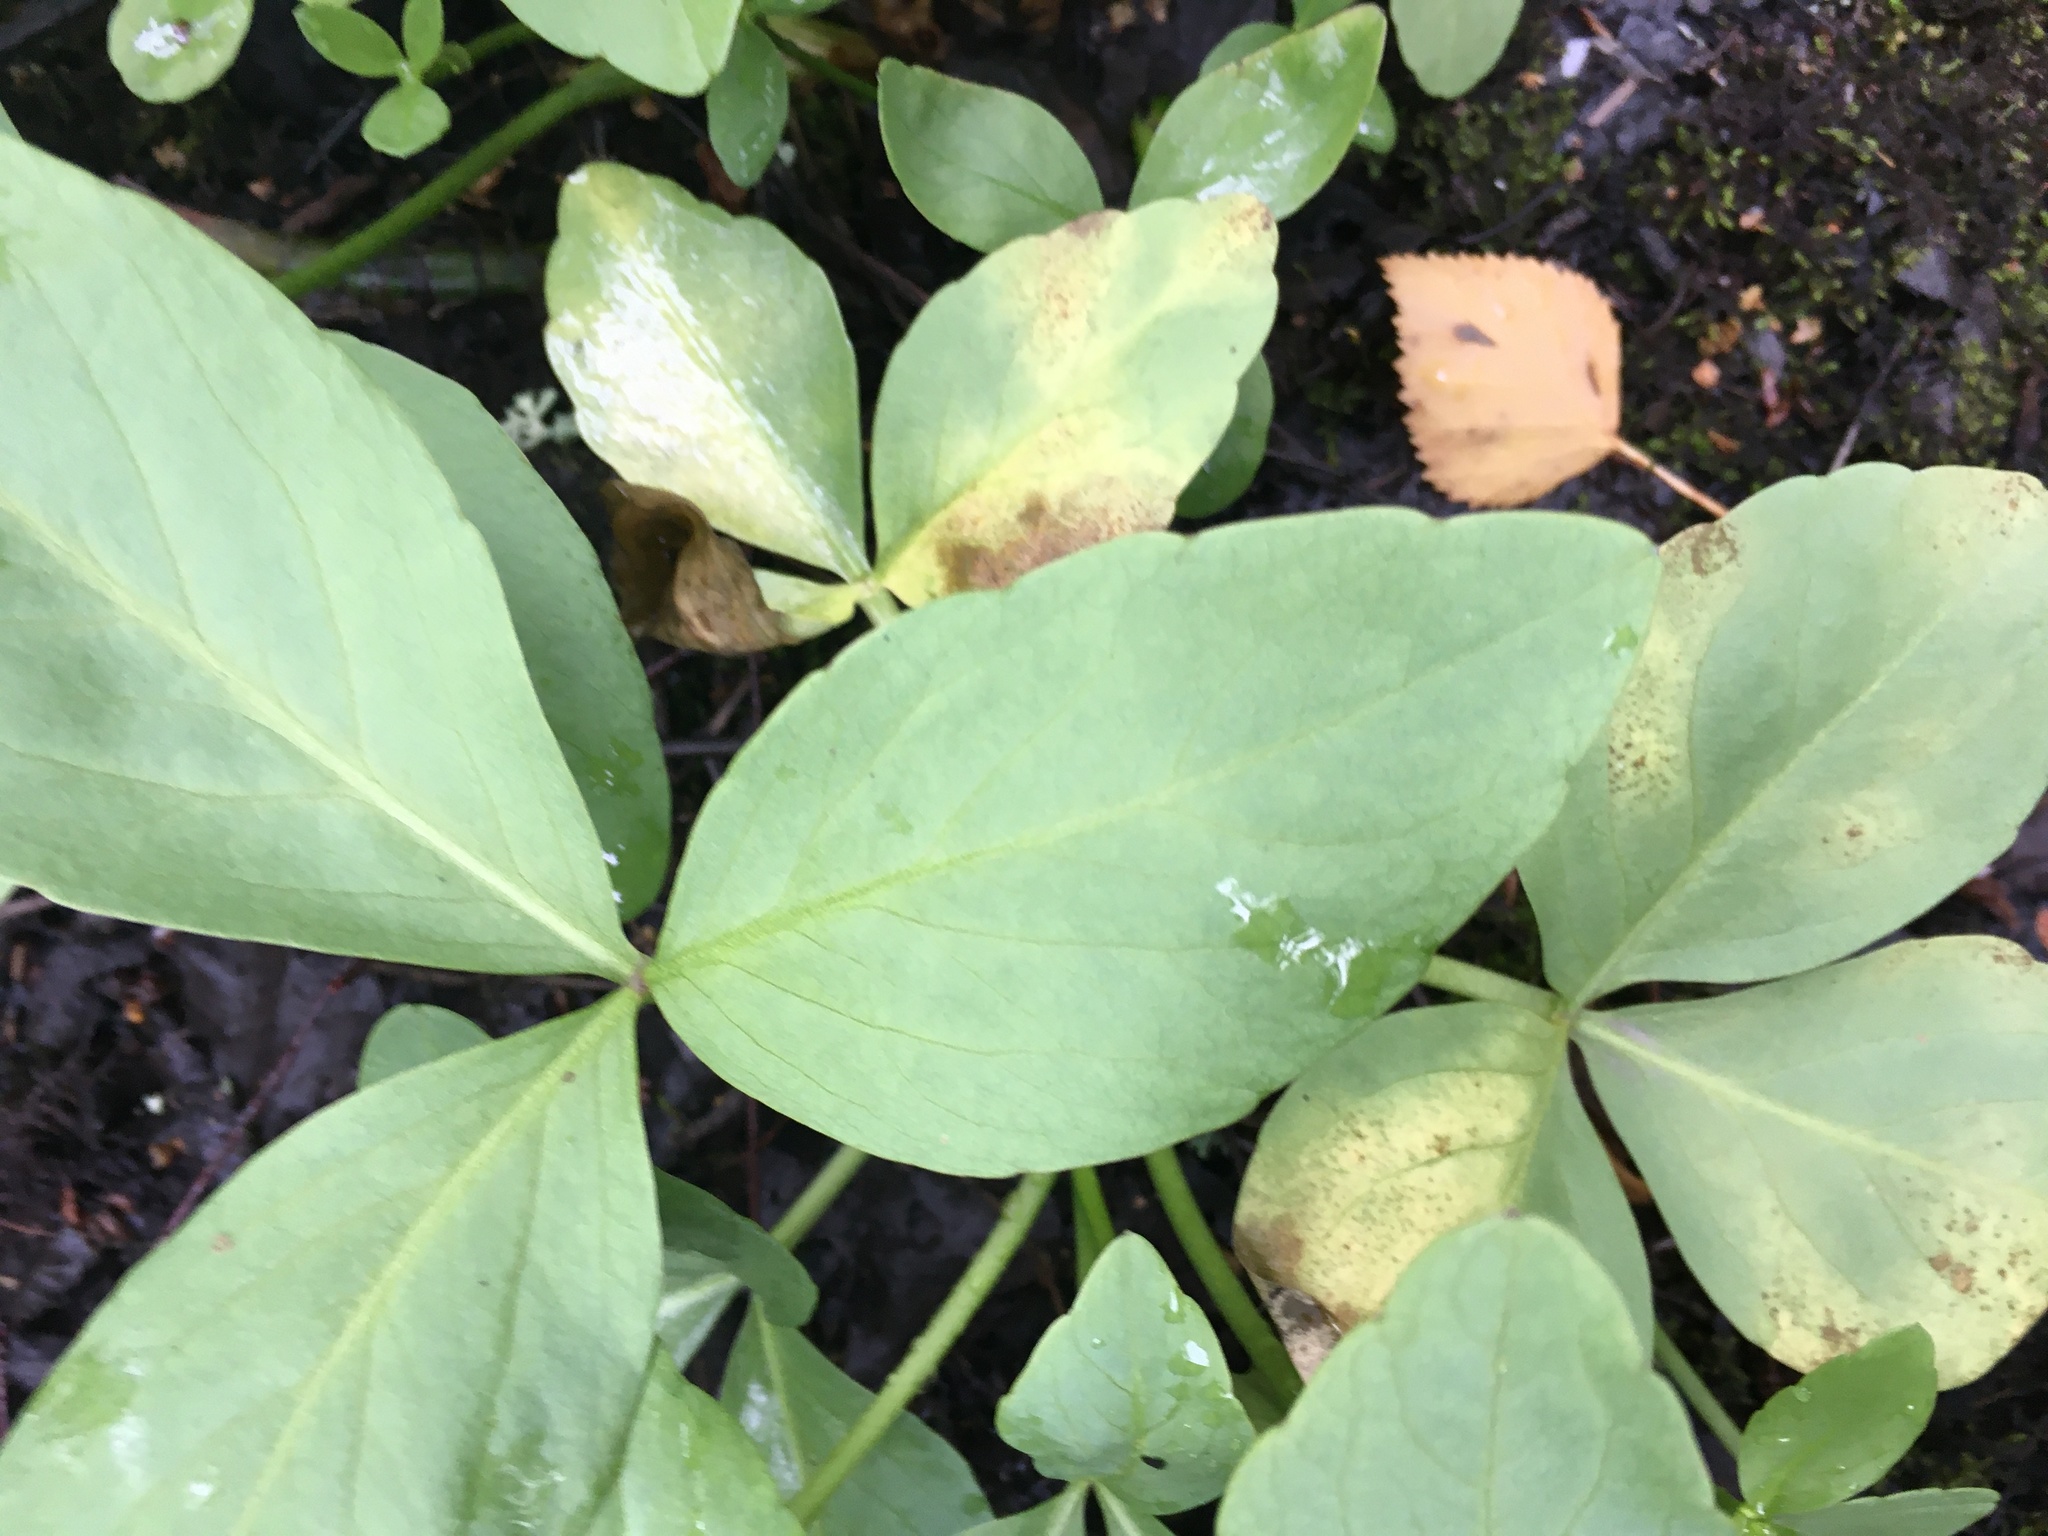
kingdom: Plantae
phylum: Tracheophyta
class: Magnoliopsida
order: Asterales
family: Menyanthaceae
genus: Menyanthes
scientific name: Menyanthes trifoliata
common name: Bogbean
